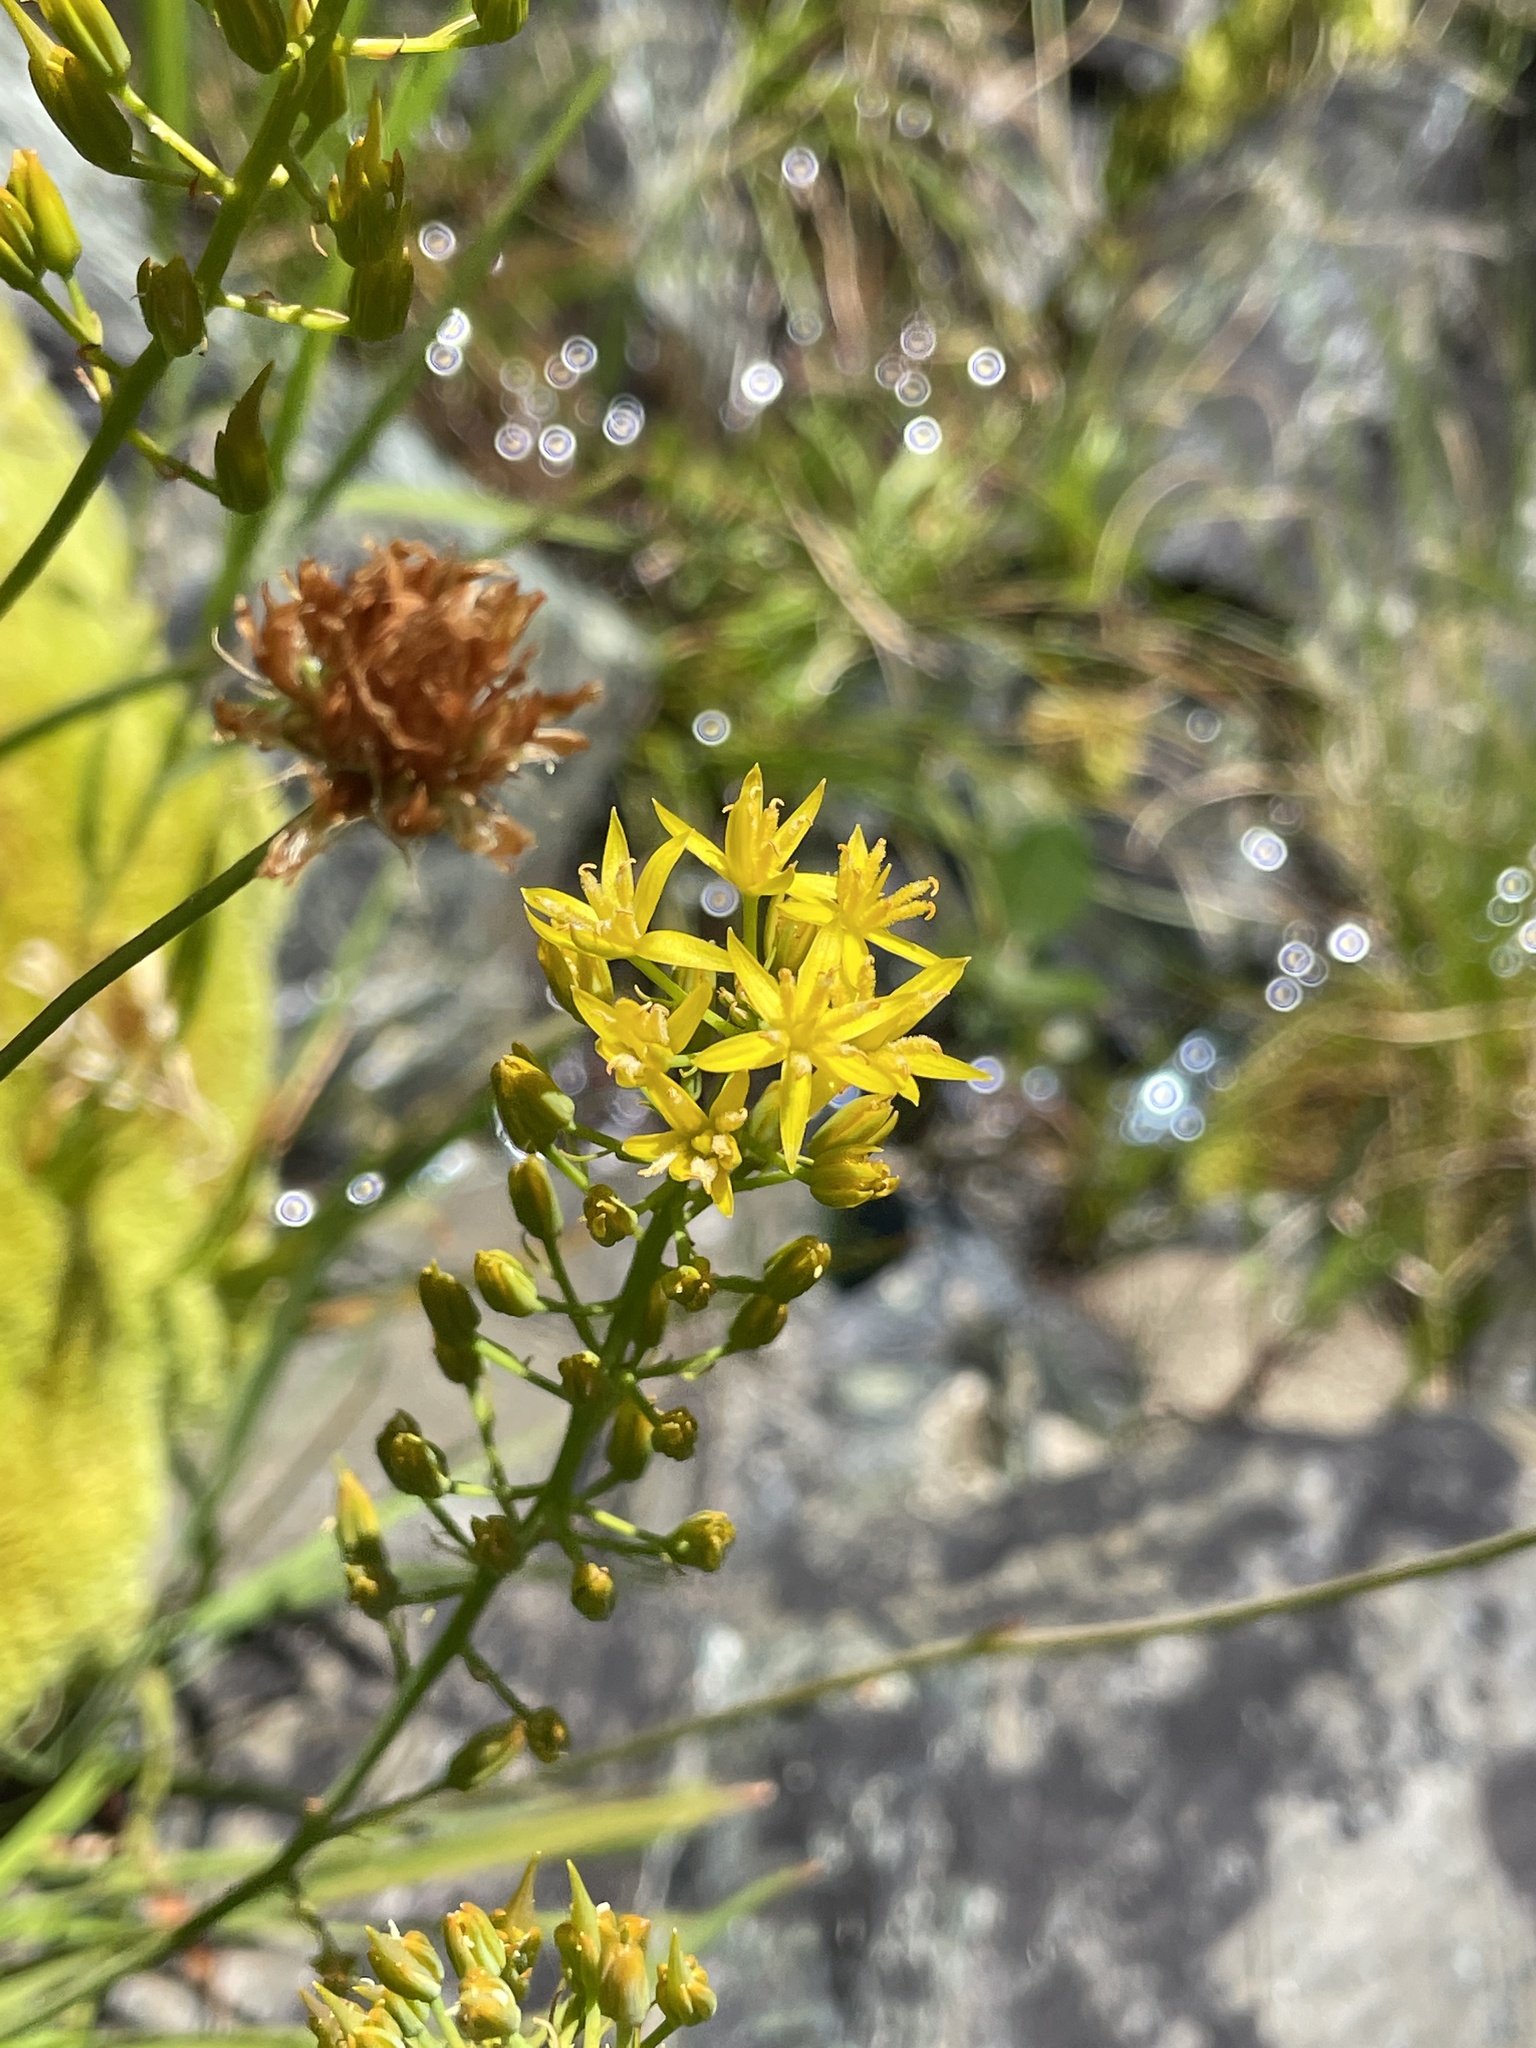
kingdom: Plantae
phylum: Tracheophyta
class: Liliopsida
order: Dioscoreales
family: Nartheciaceae
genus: Narthecium
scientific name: Narthecium californicum
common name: California bog-asphodel
